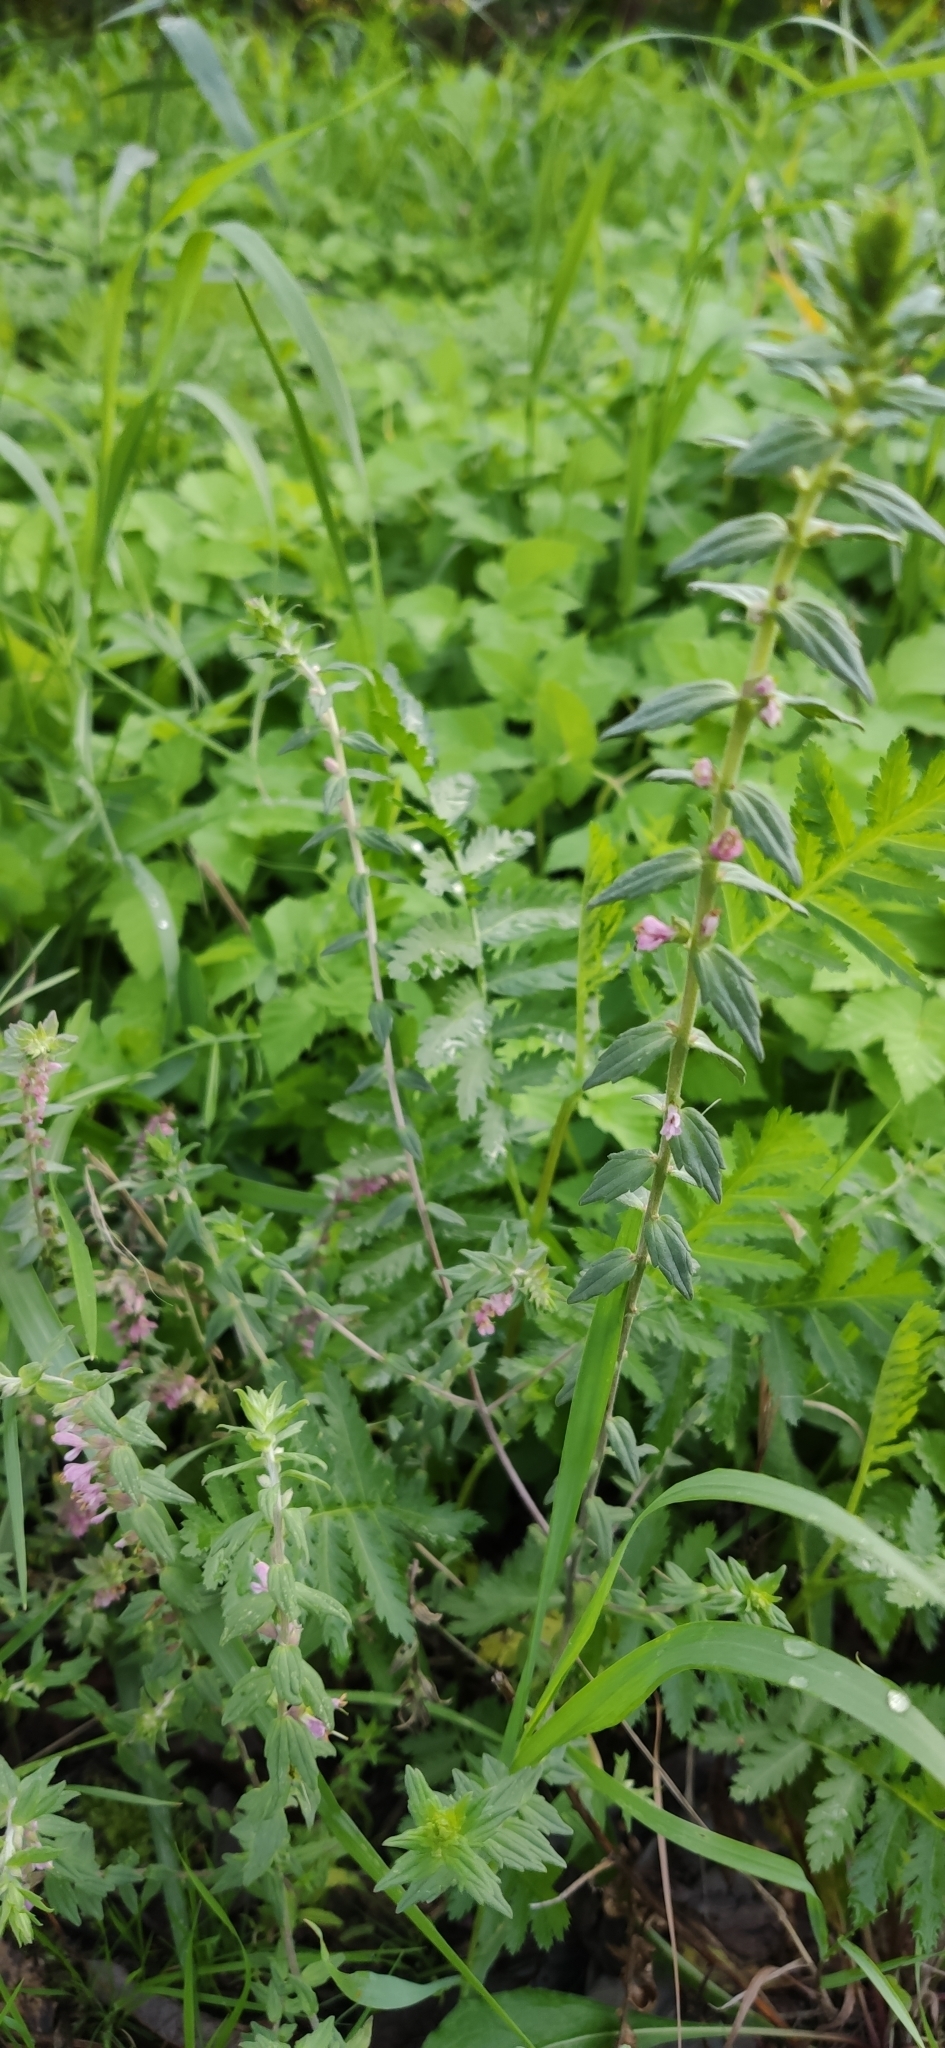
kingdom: Plantae
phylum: Tracheophyta
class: Magnoliopsida
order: Lamiales
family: Orobanchaceae
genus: Odontites
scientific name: Odontites vulgaris
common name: Broomrape
